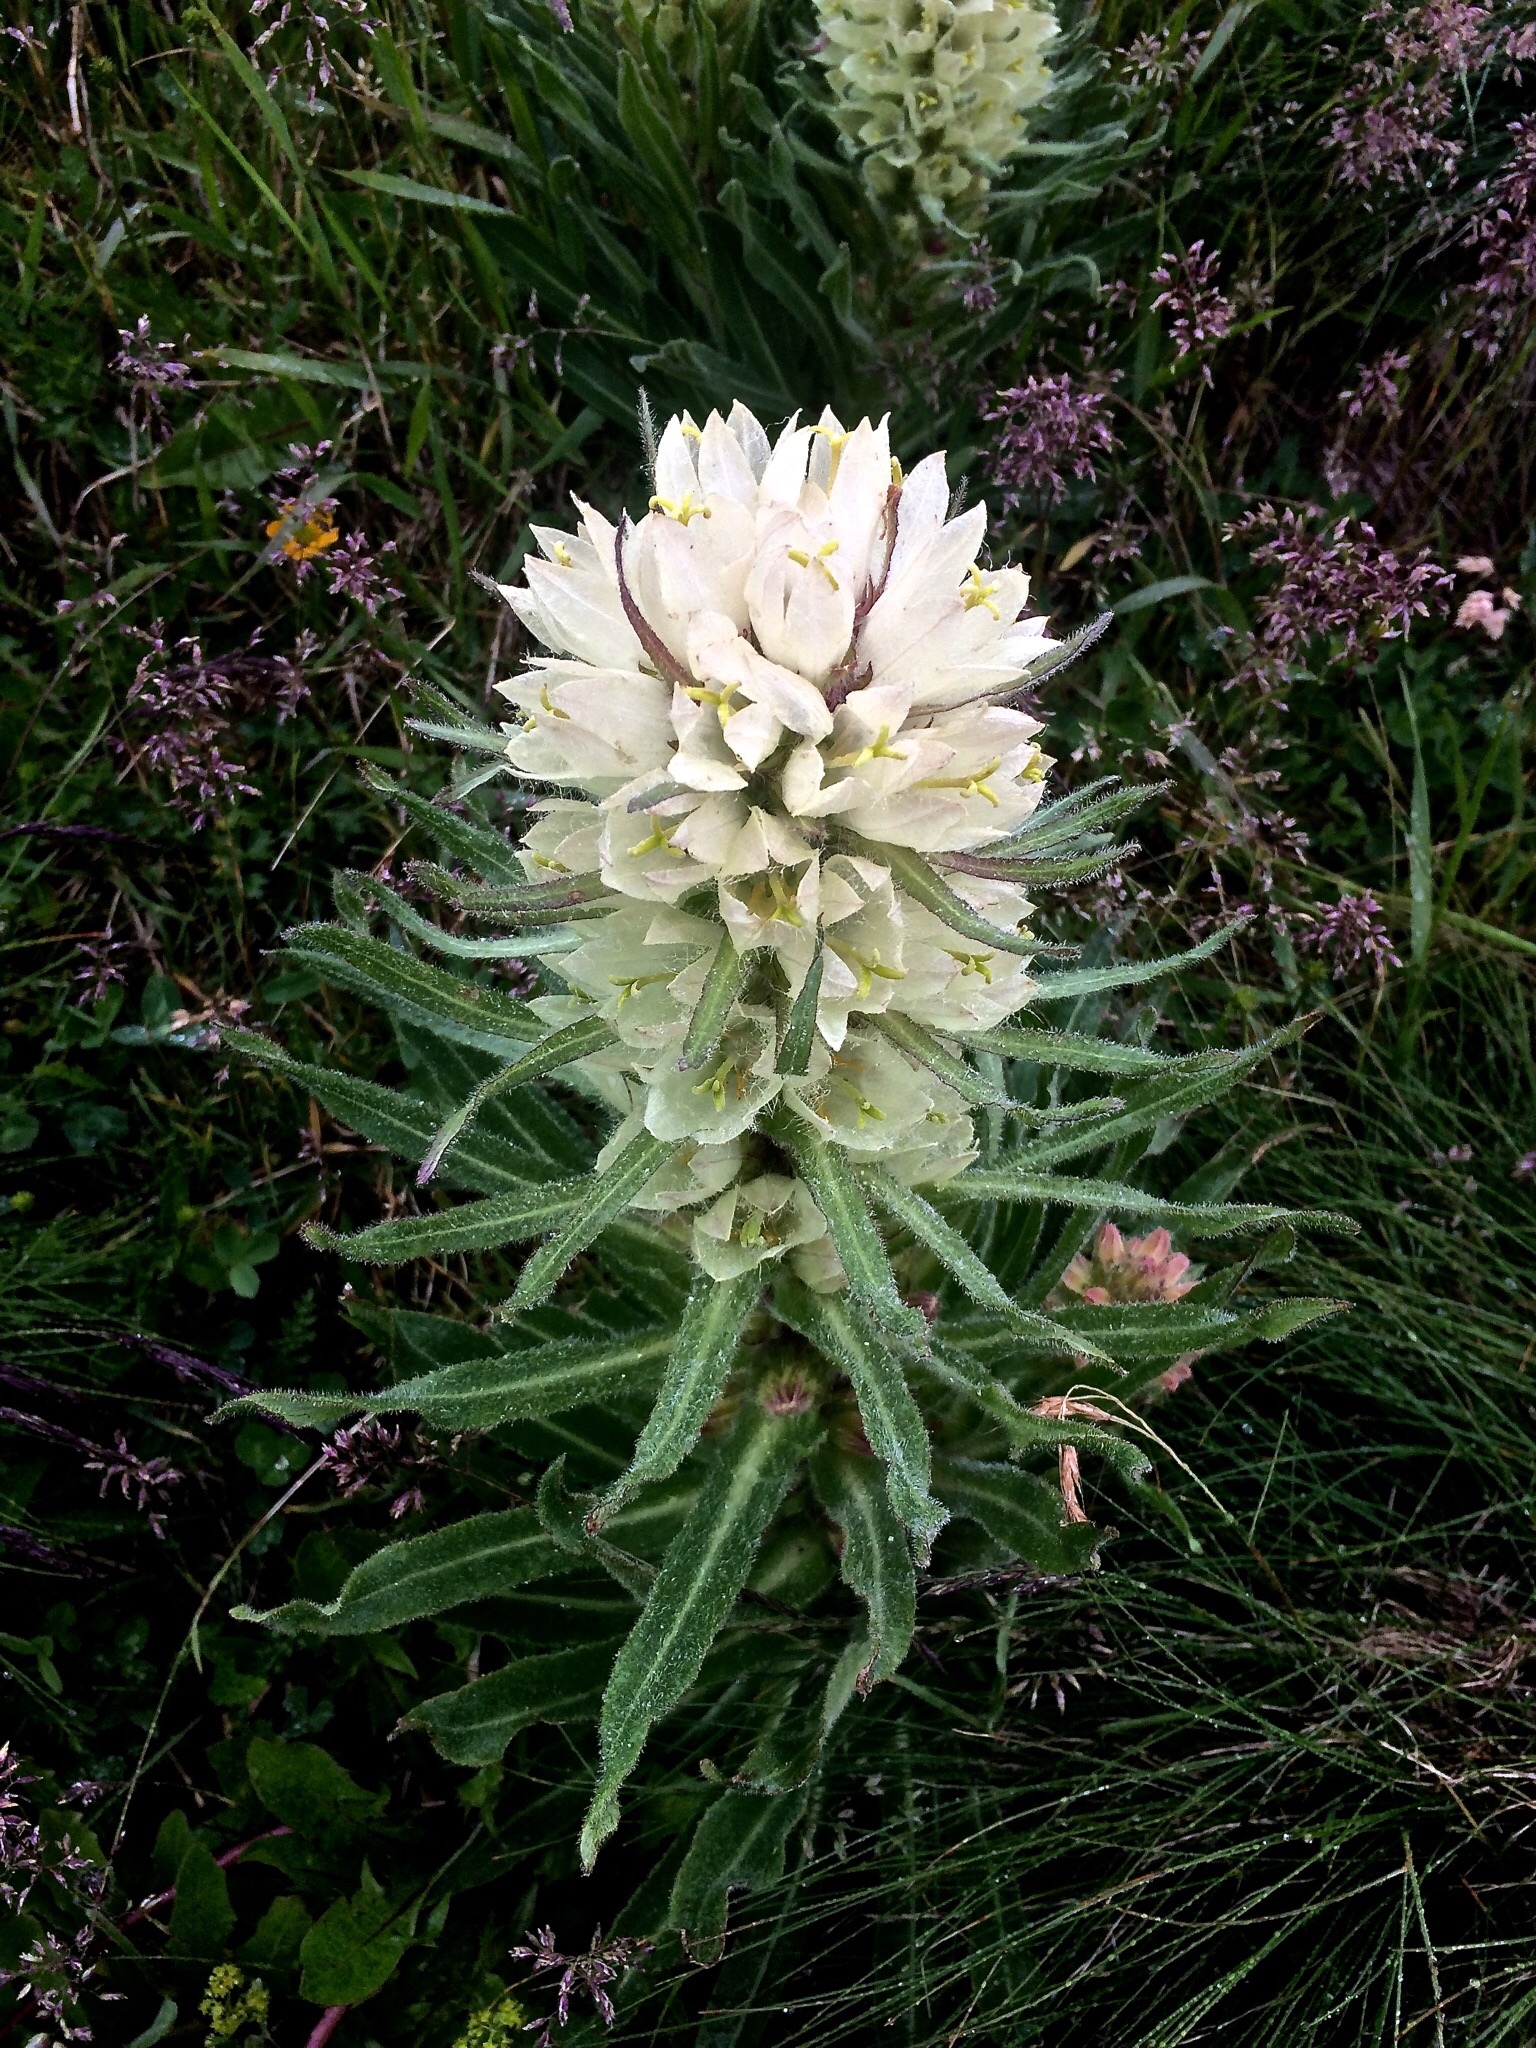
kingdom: Plantae
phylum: Tracheophyta
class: Magnoliopsida
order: Asterales
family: Campanulaceae
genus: Campanula
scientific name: Campanula thyrsoides
